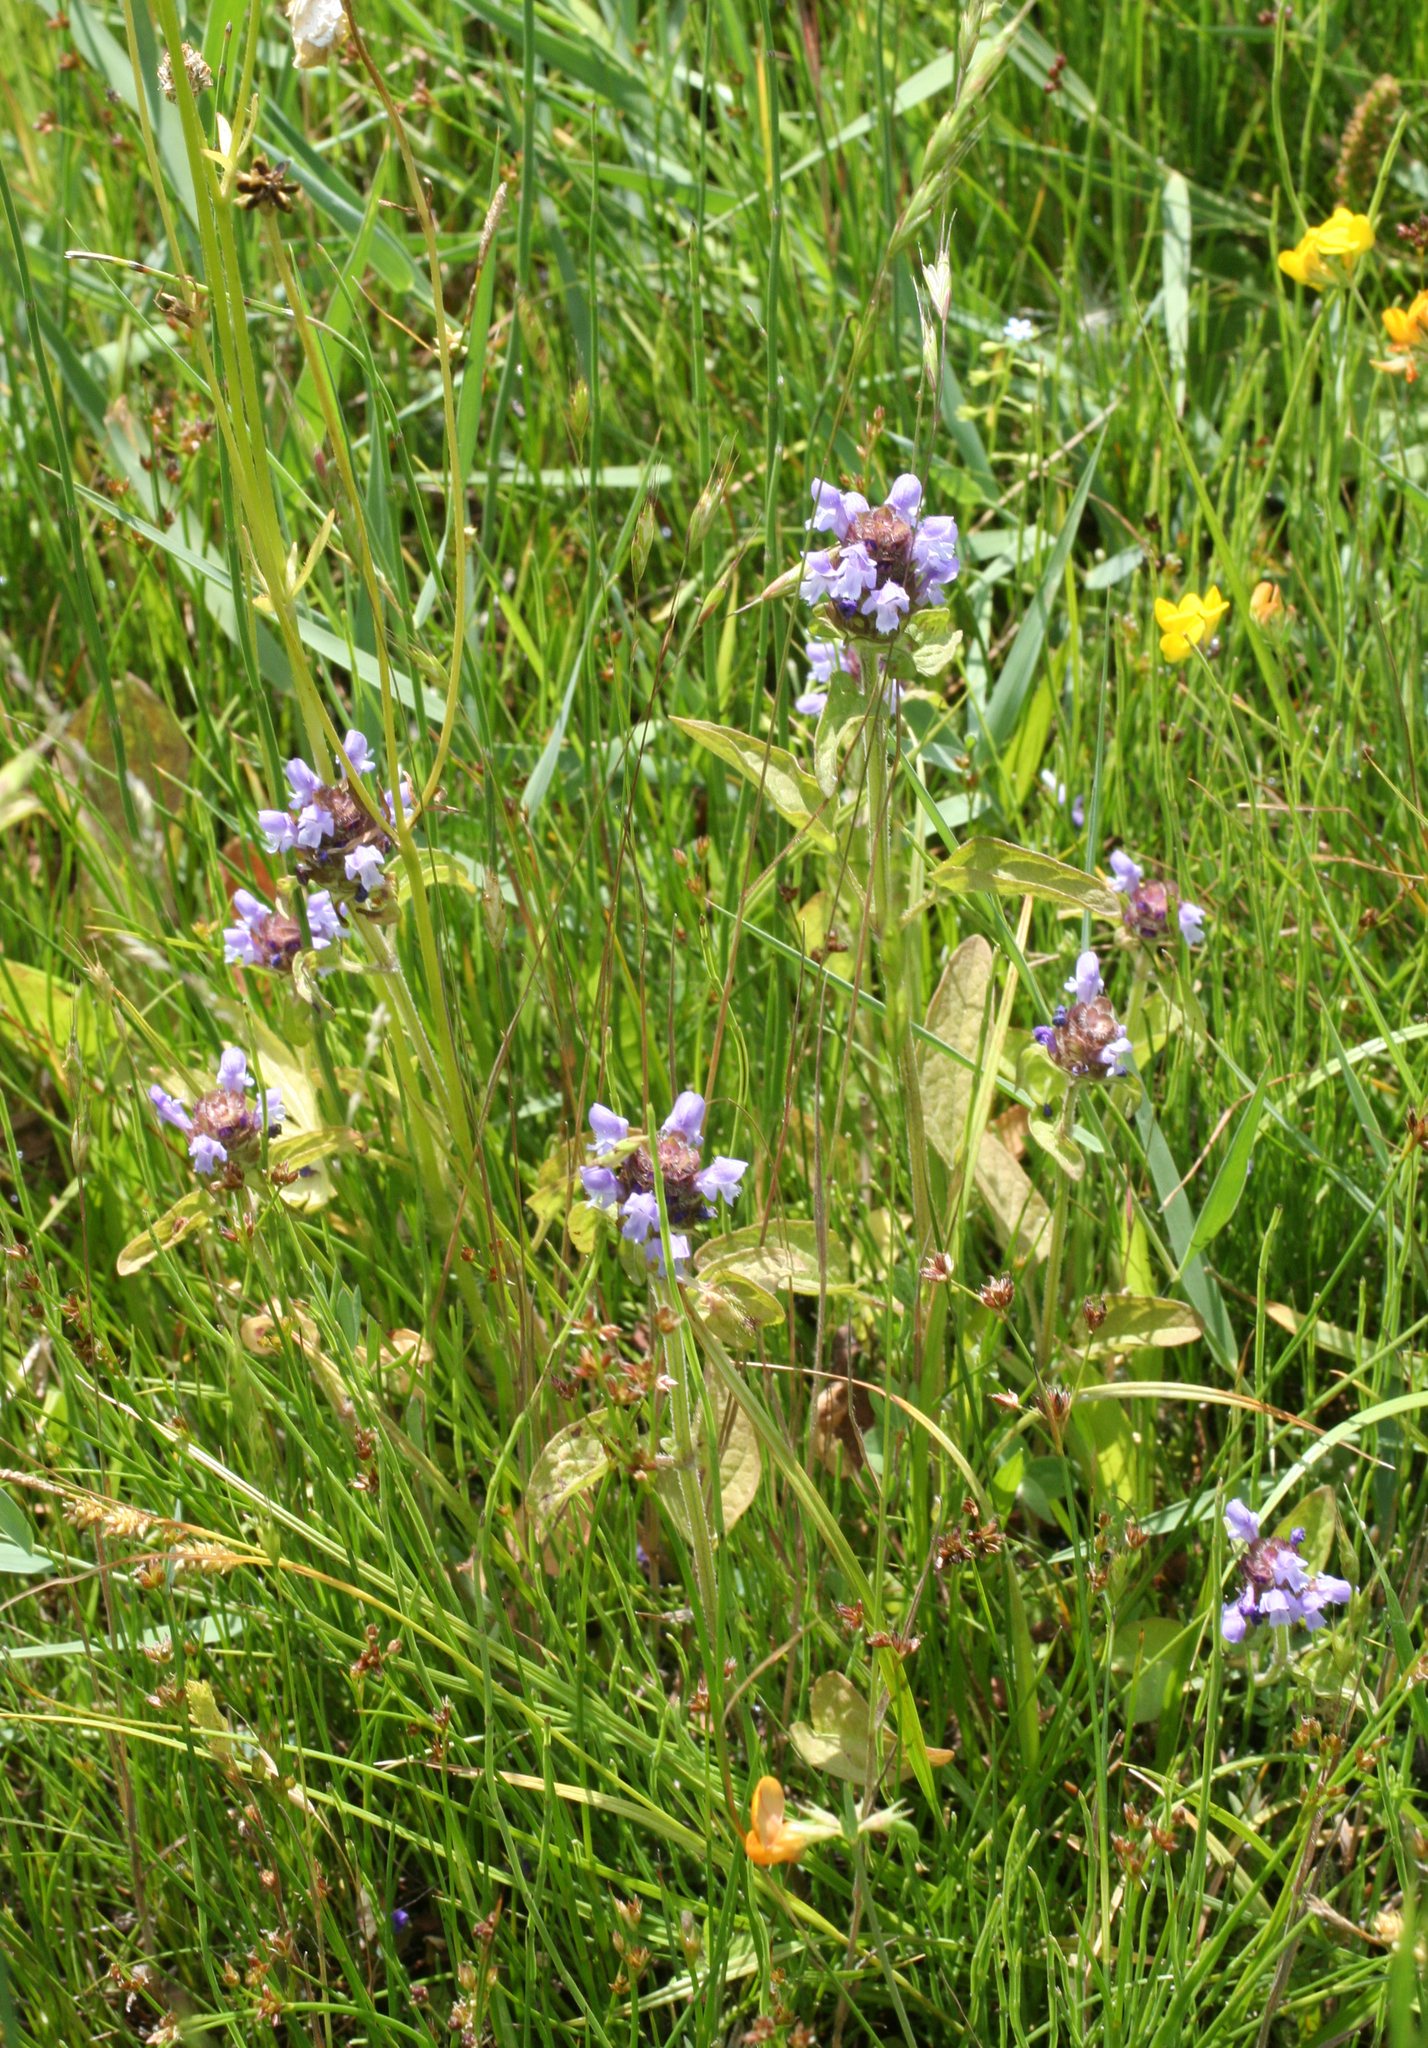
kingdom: Plantae
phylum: Tracheophyta
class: Magnoliopsida
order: Lamiales
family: Lamiaceae
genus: Prunella
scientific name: Prunella vulgaris
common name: Heal-all
